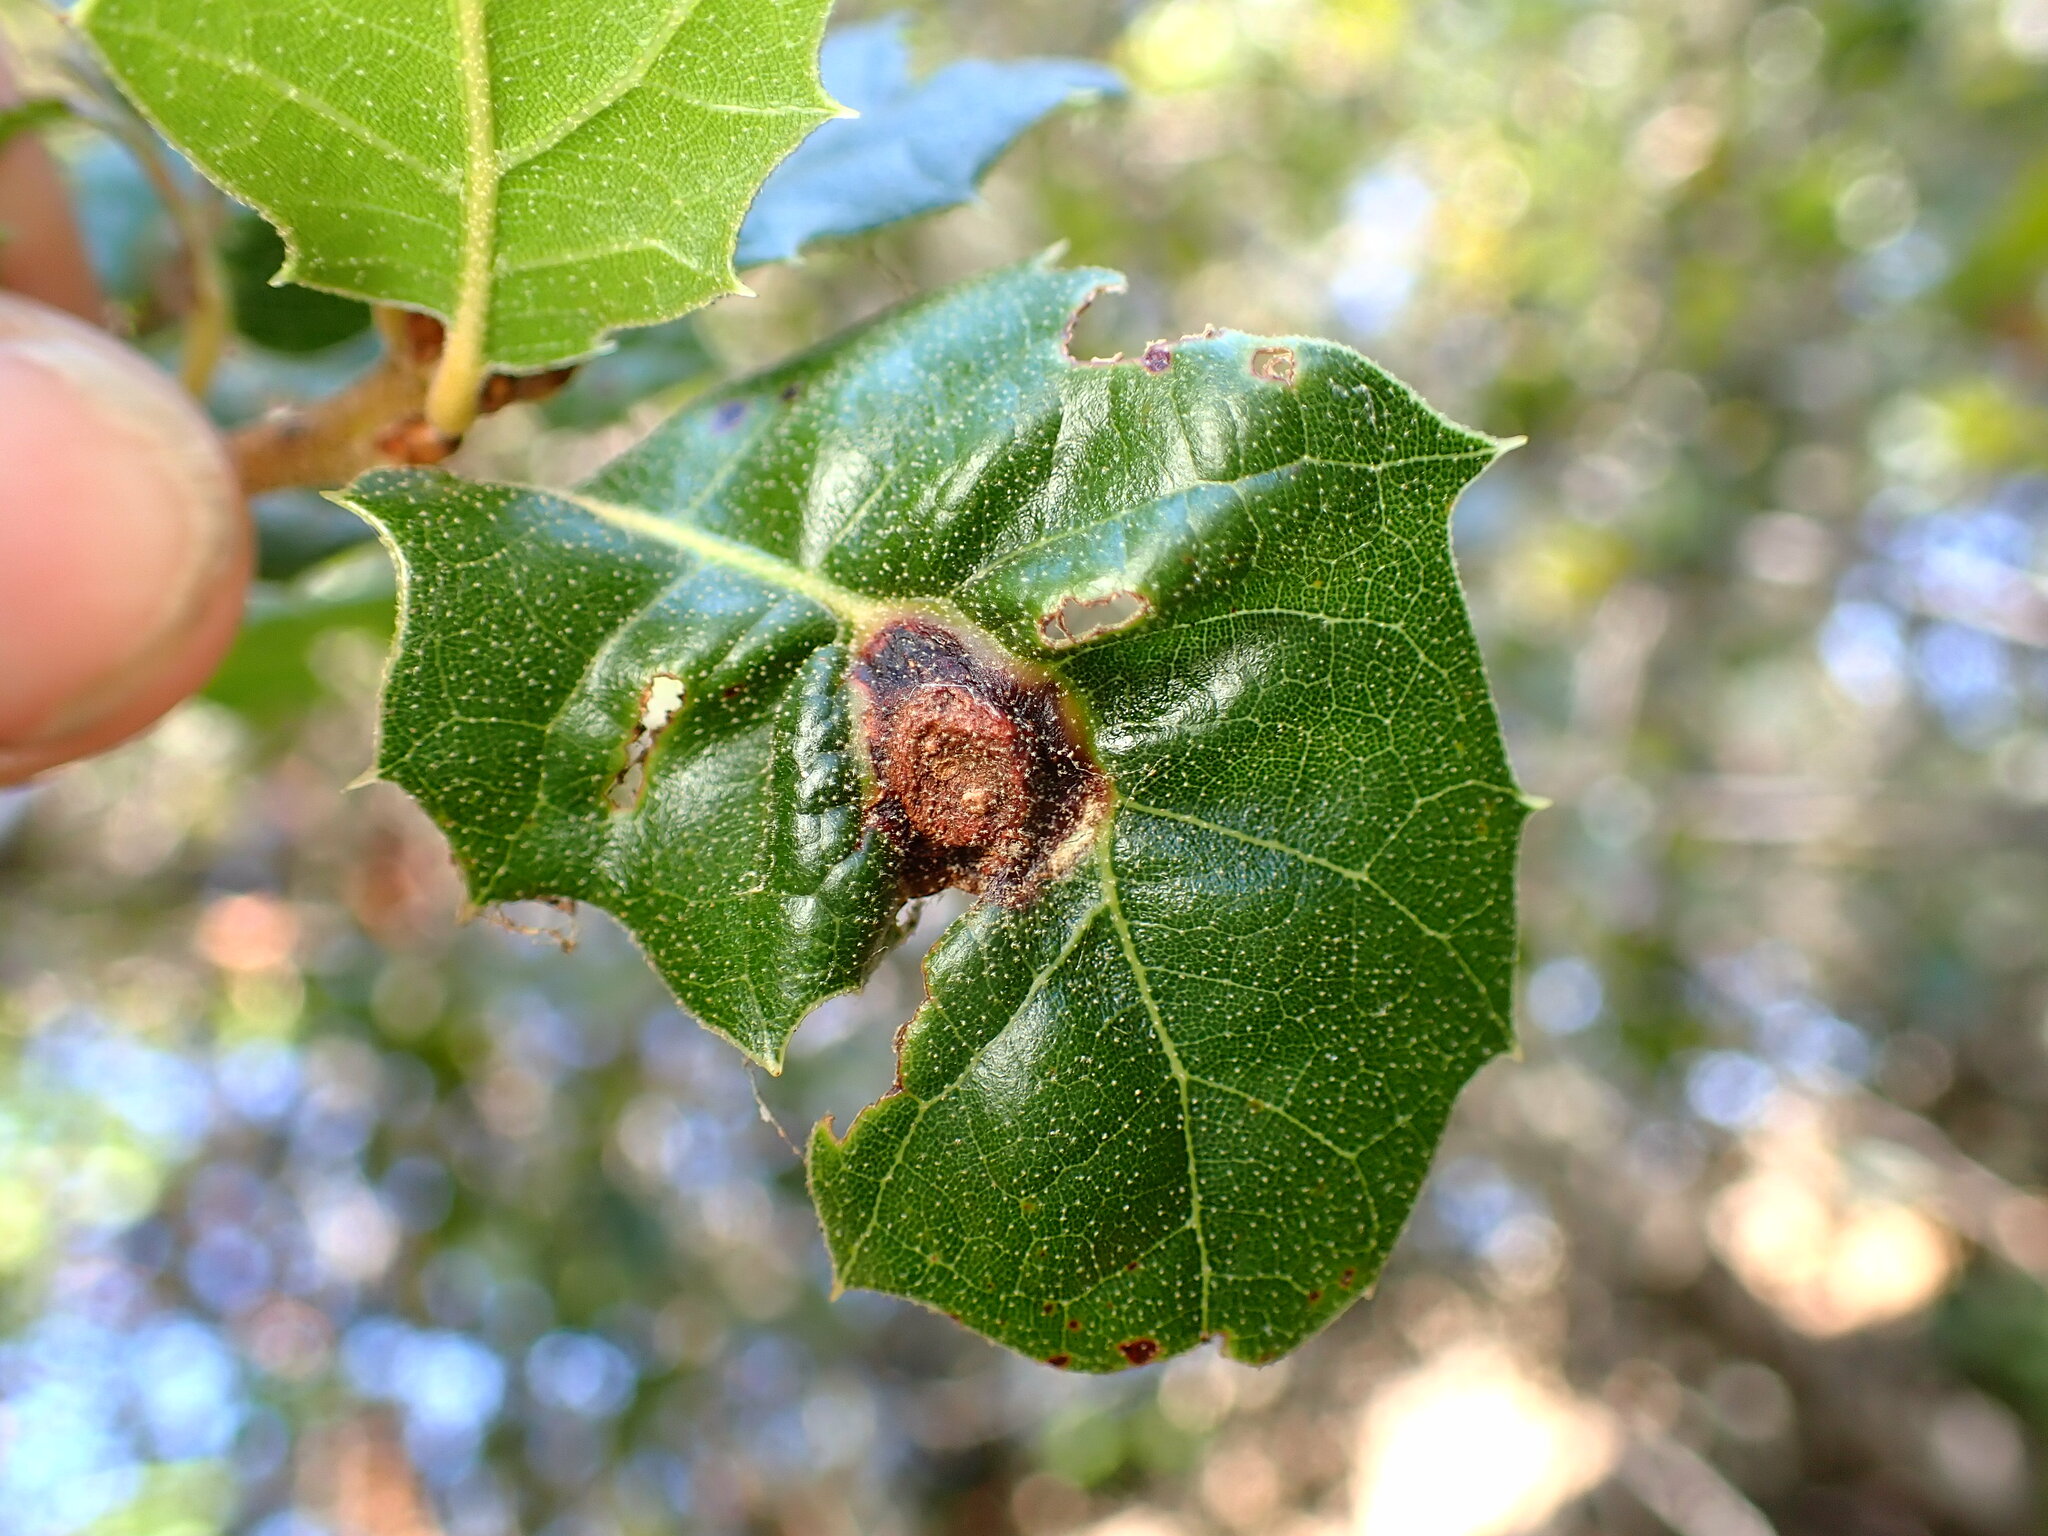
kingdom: Animalia
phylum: Arthropoda
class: Insecta
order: Hymenoptera
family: Cynipidae
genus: Callirhytis
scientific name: Callirhytis
